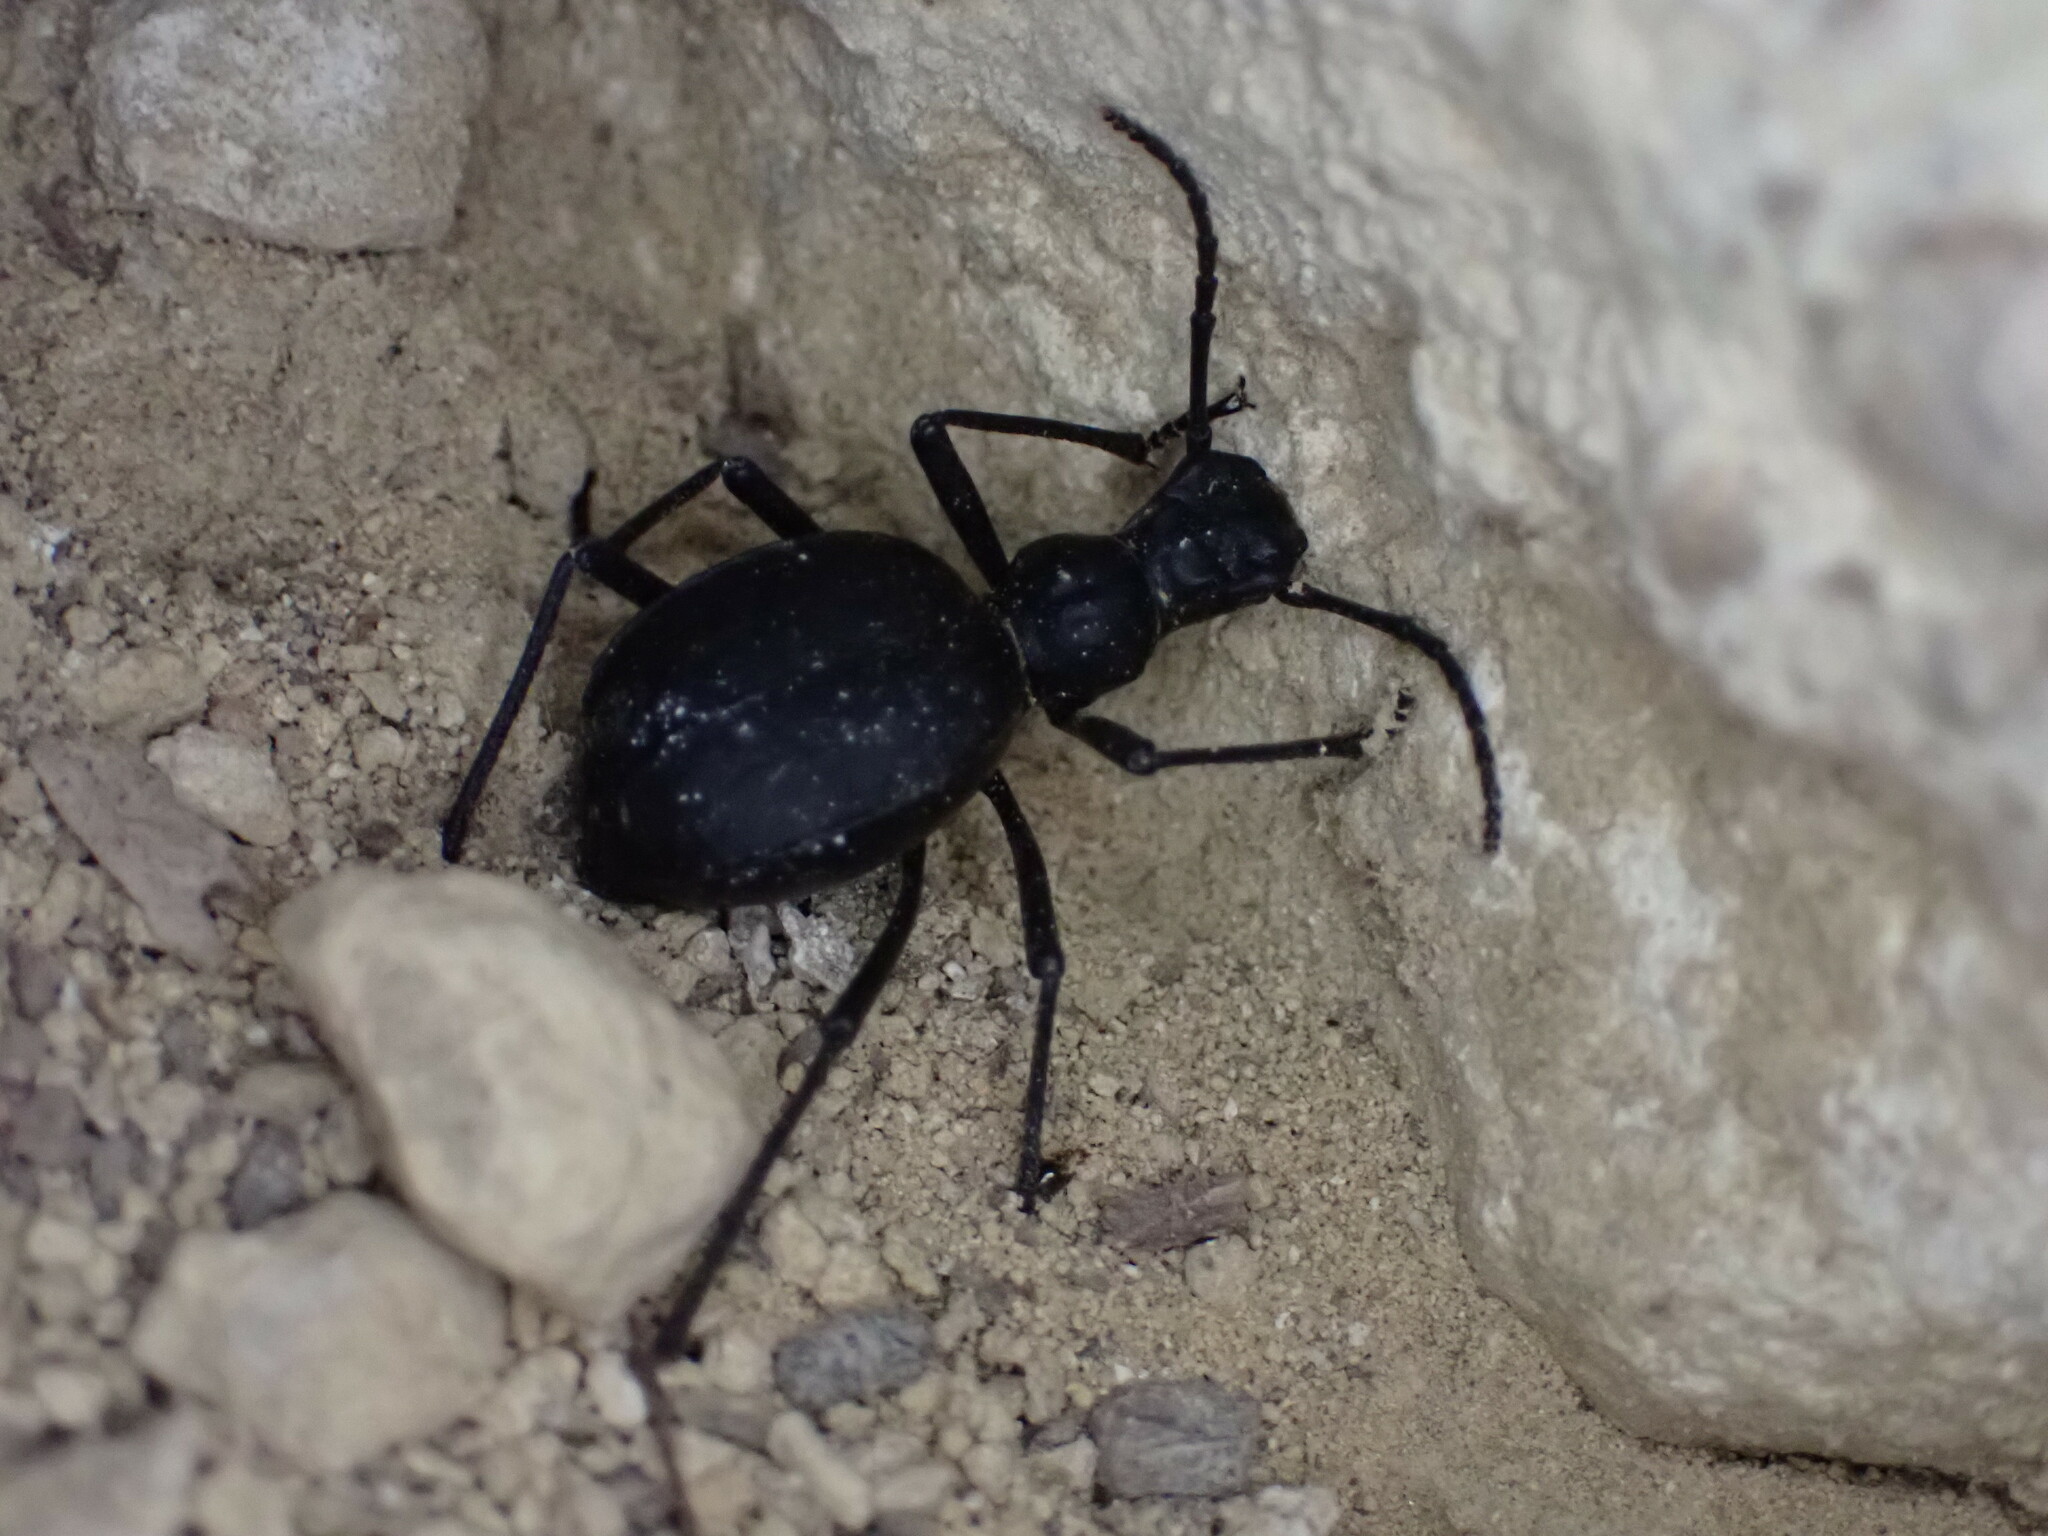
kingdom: Animalia
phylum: Arthropoda
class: Insecta
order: Coleoptera
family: Tenebrionidae
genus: Leptoderis
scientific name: Leptoderis solieri
